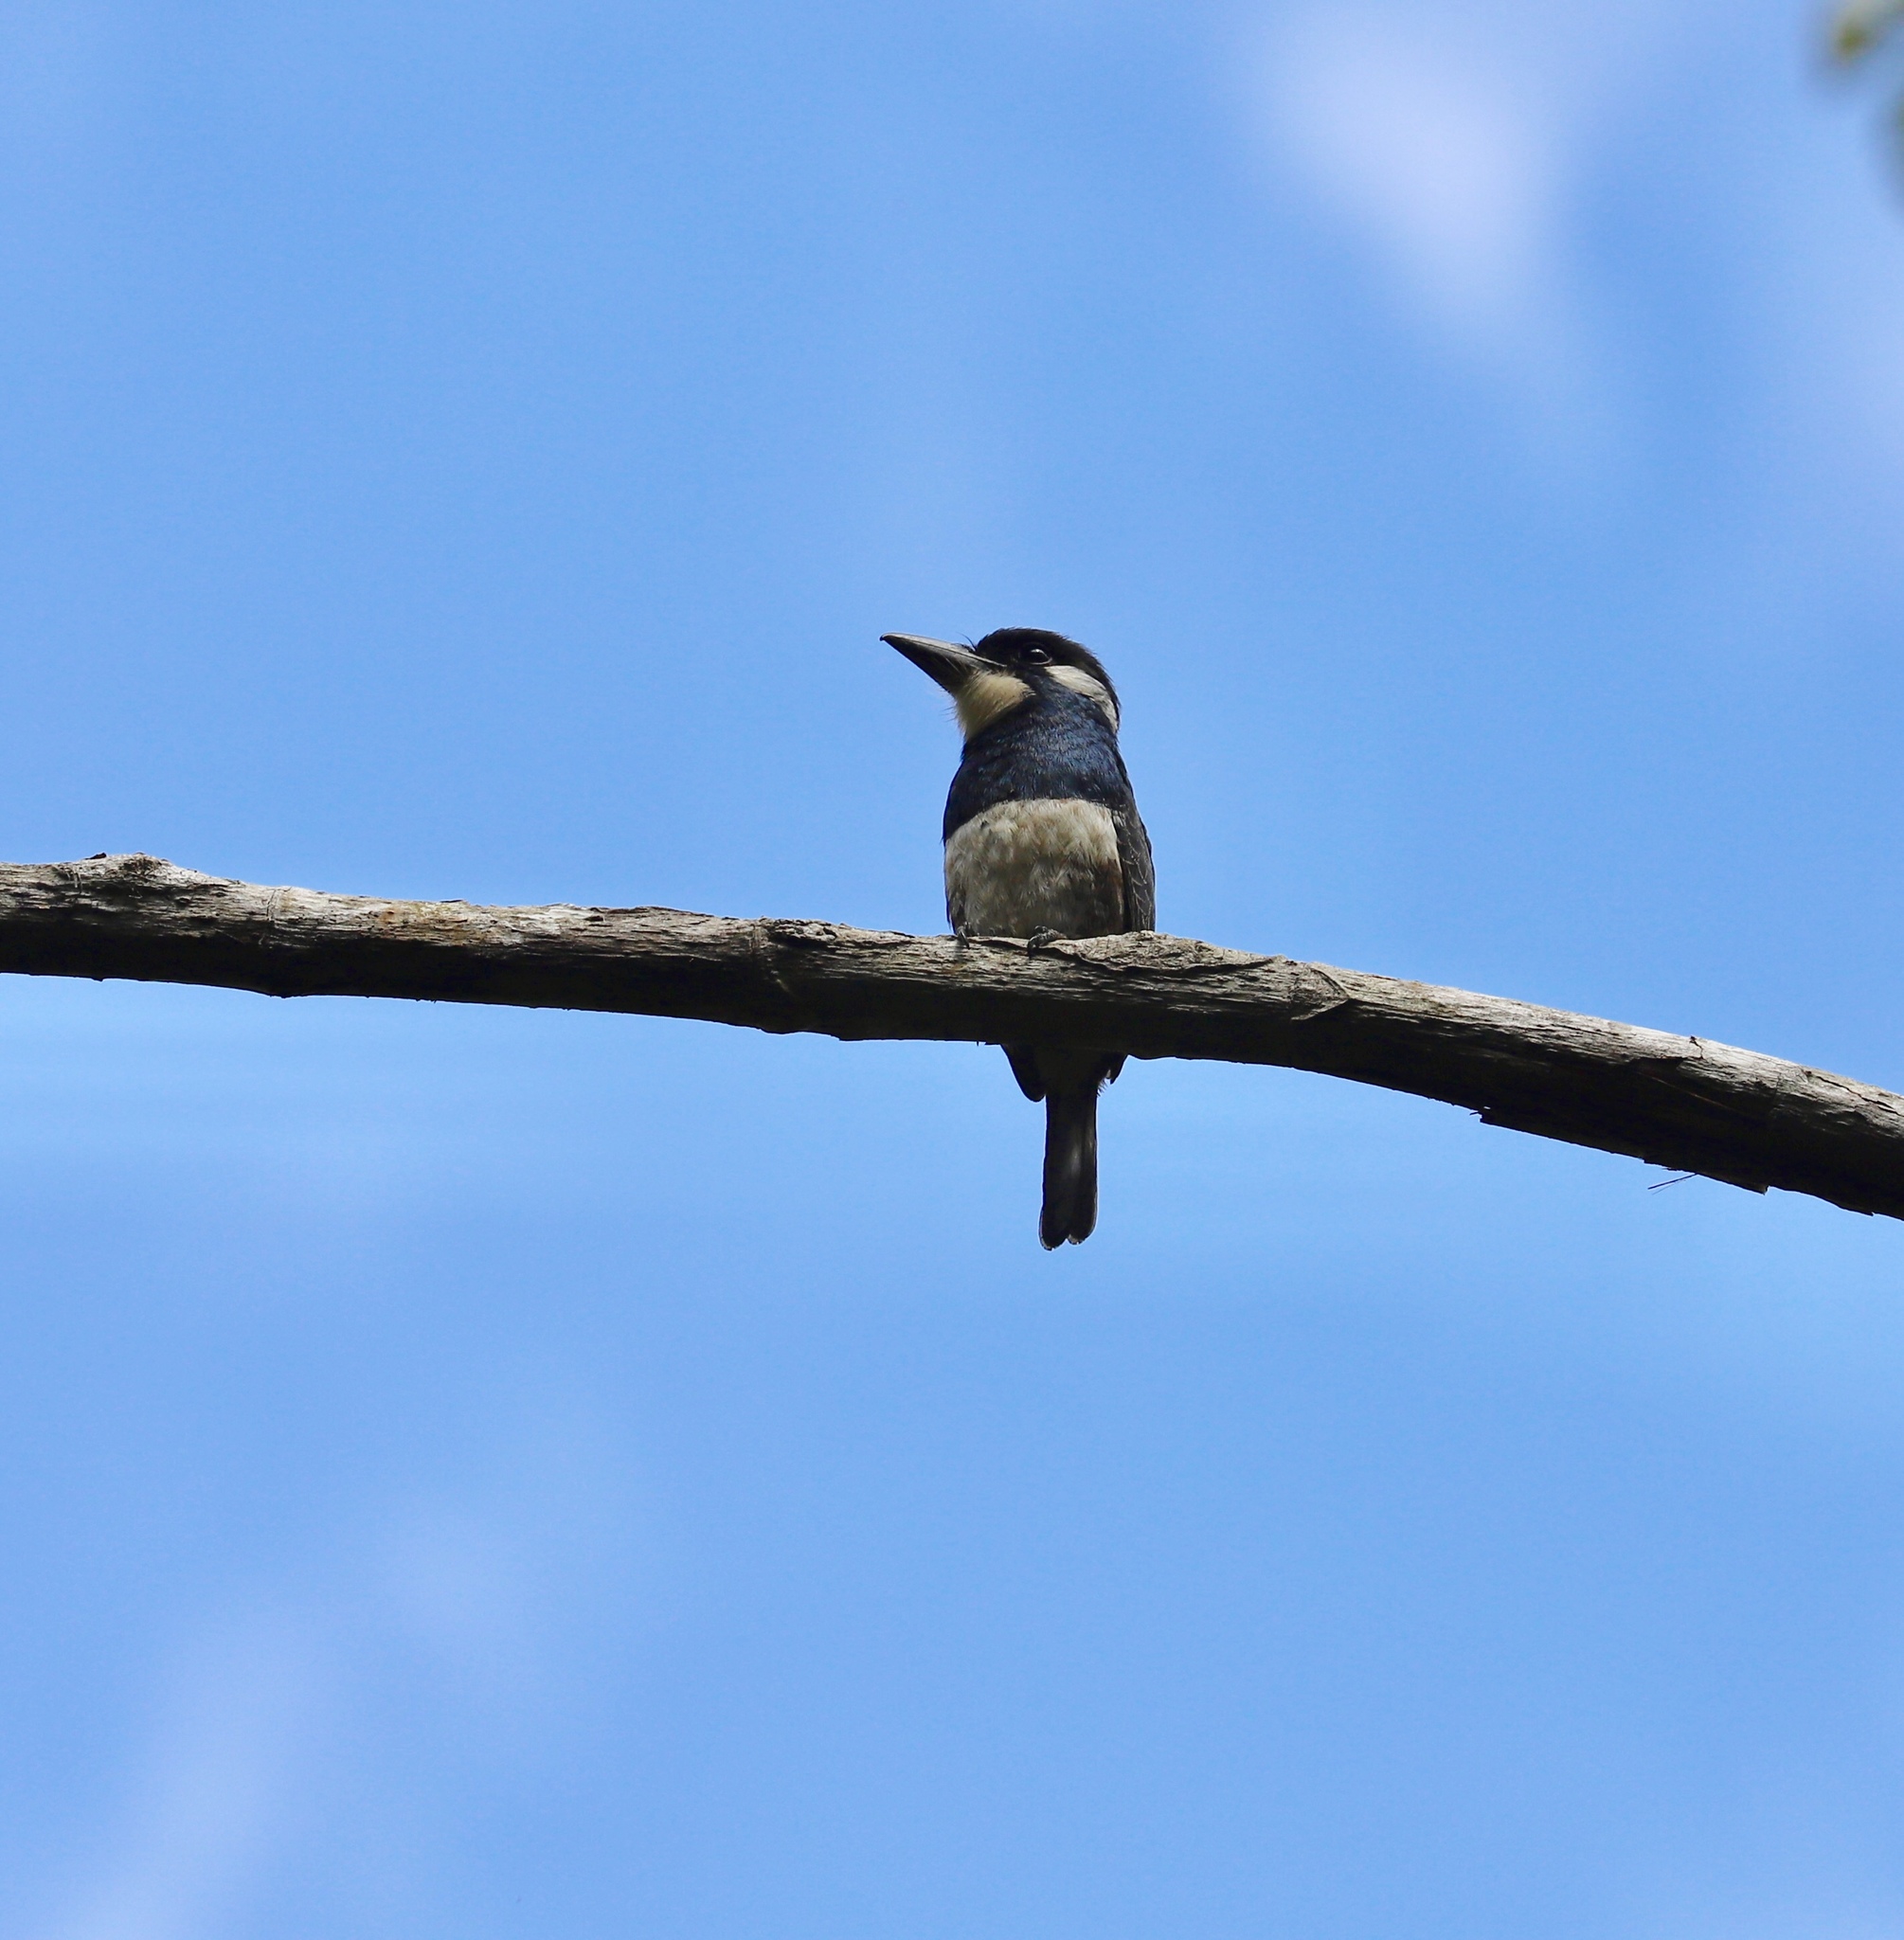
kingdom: Animalia
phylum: Chordata
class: Aves
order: Piciformes
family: Bucconidae
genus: Notharchus
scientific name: Notharchus pectoralis
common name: Black-breasted puffbird
